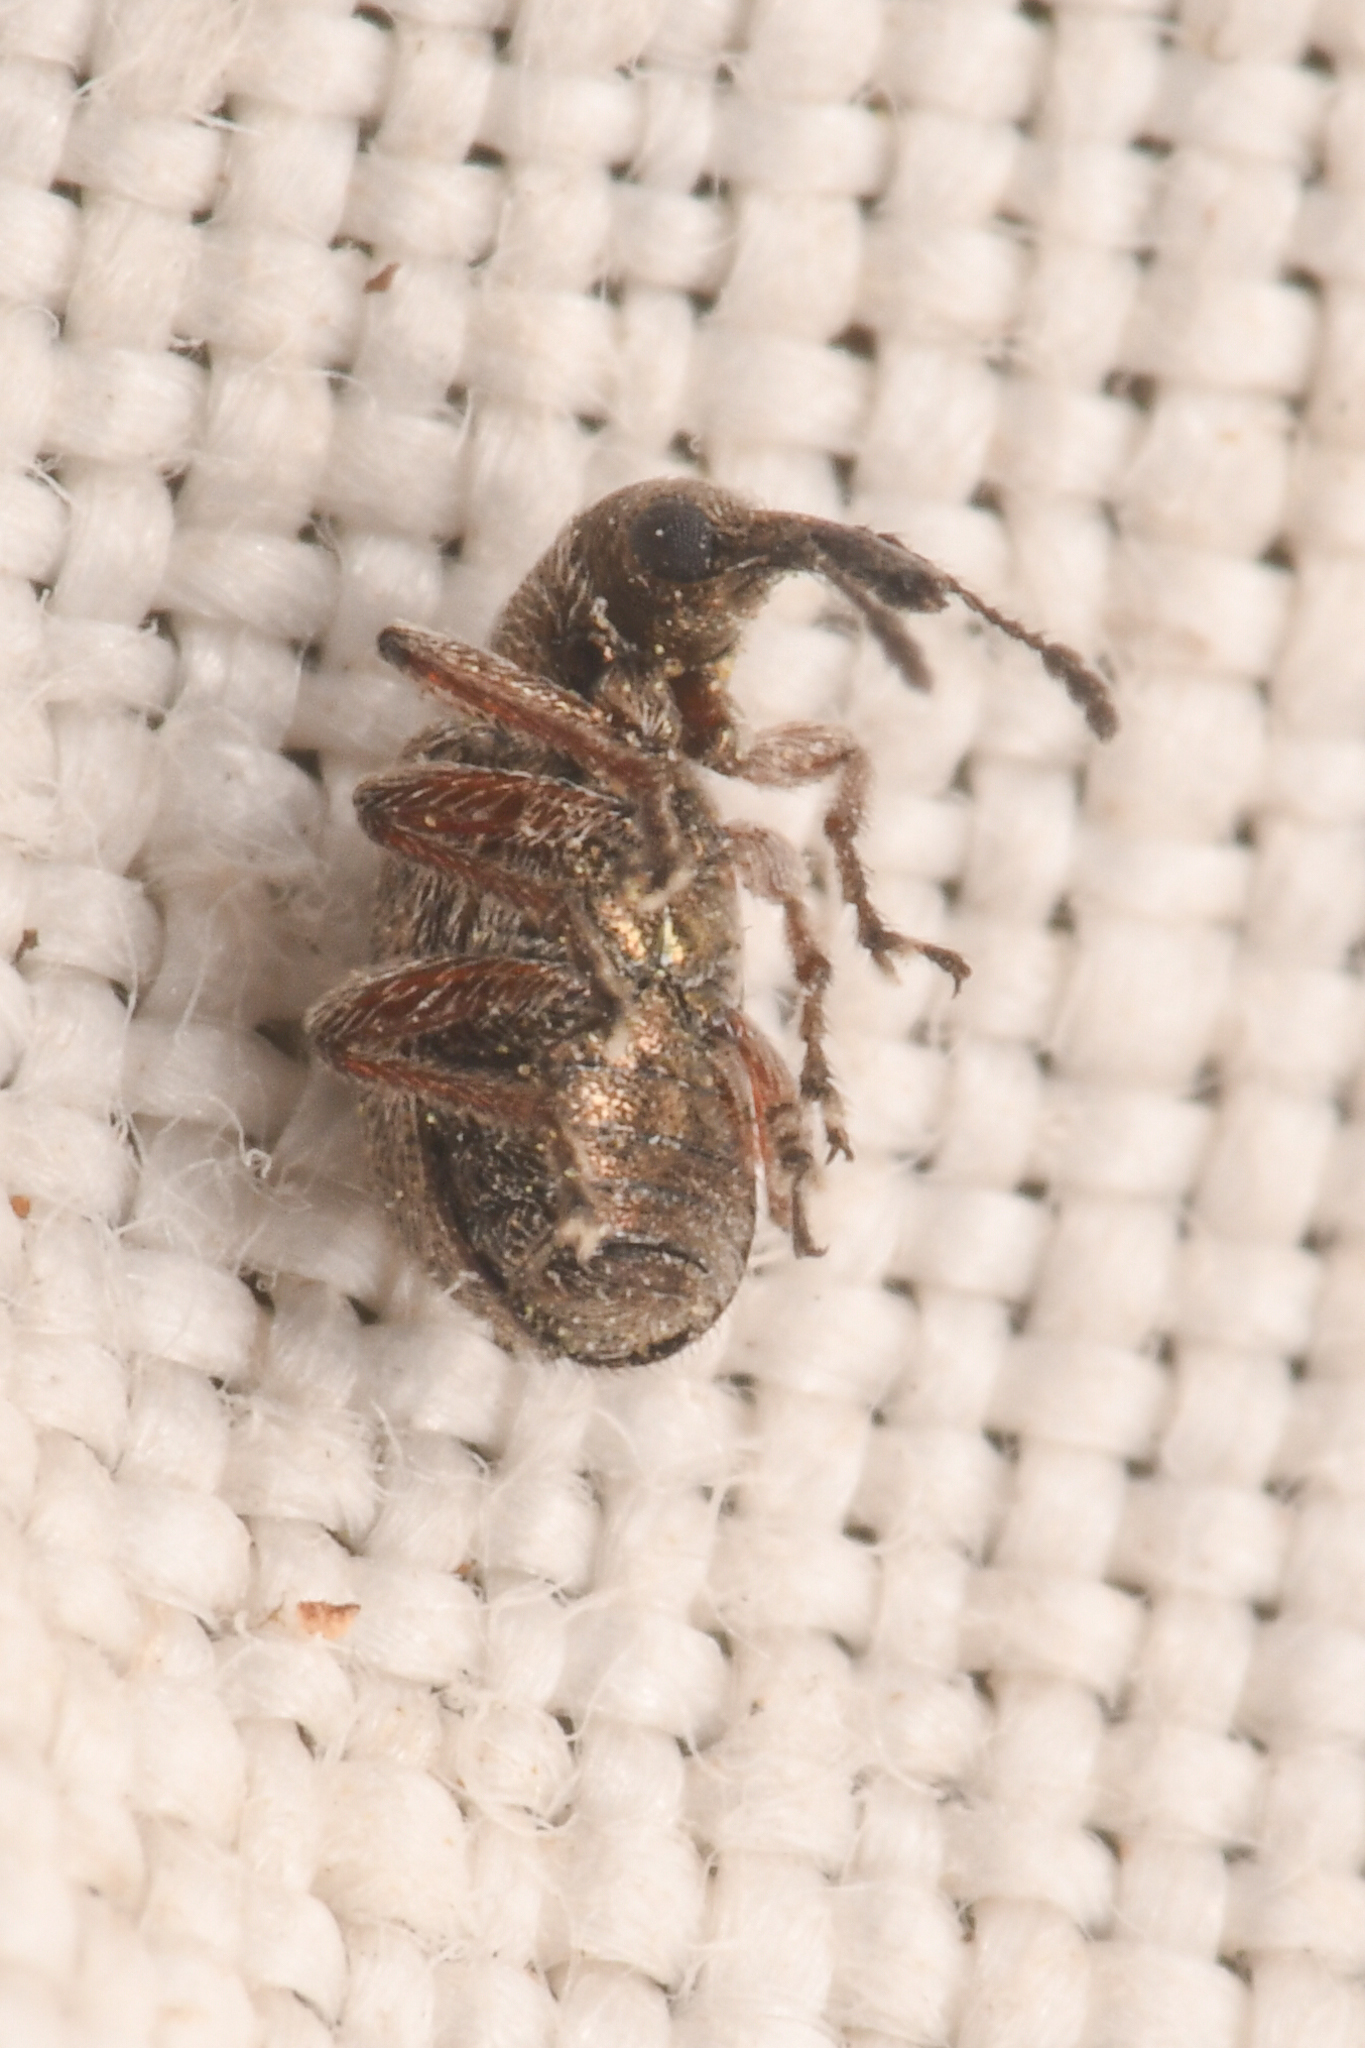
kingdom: Animalia
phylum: Arthropoda
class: Insecta
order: Coleoptera
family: Attelabidae
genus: Temnocerus
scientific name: Temnocerus aureus
